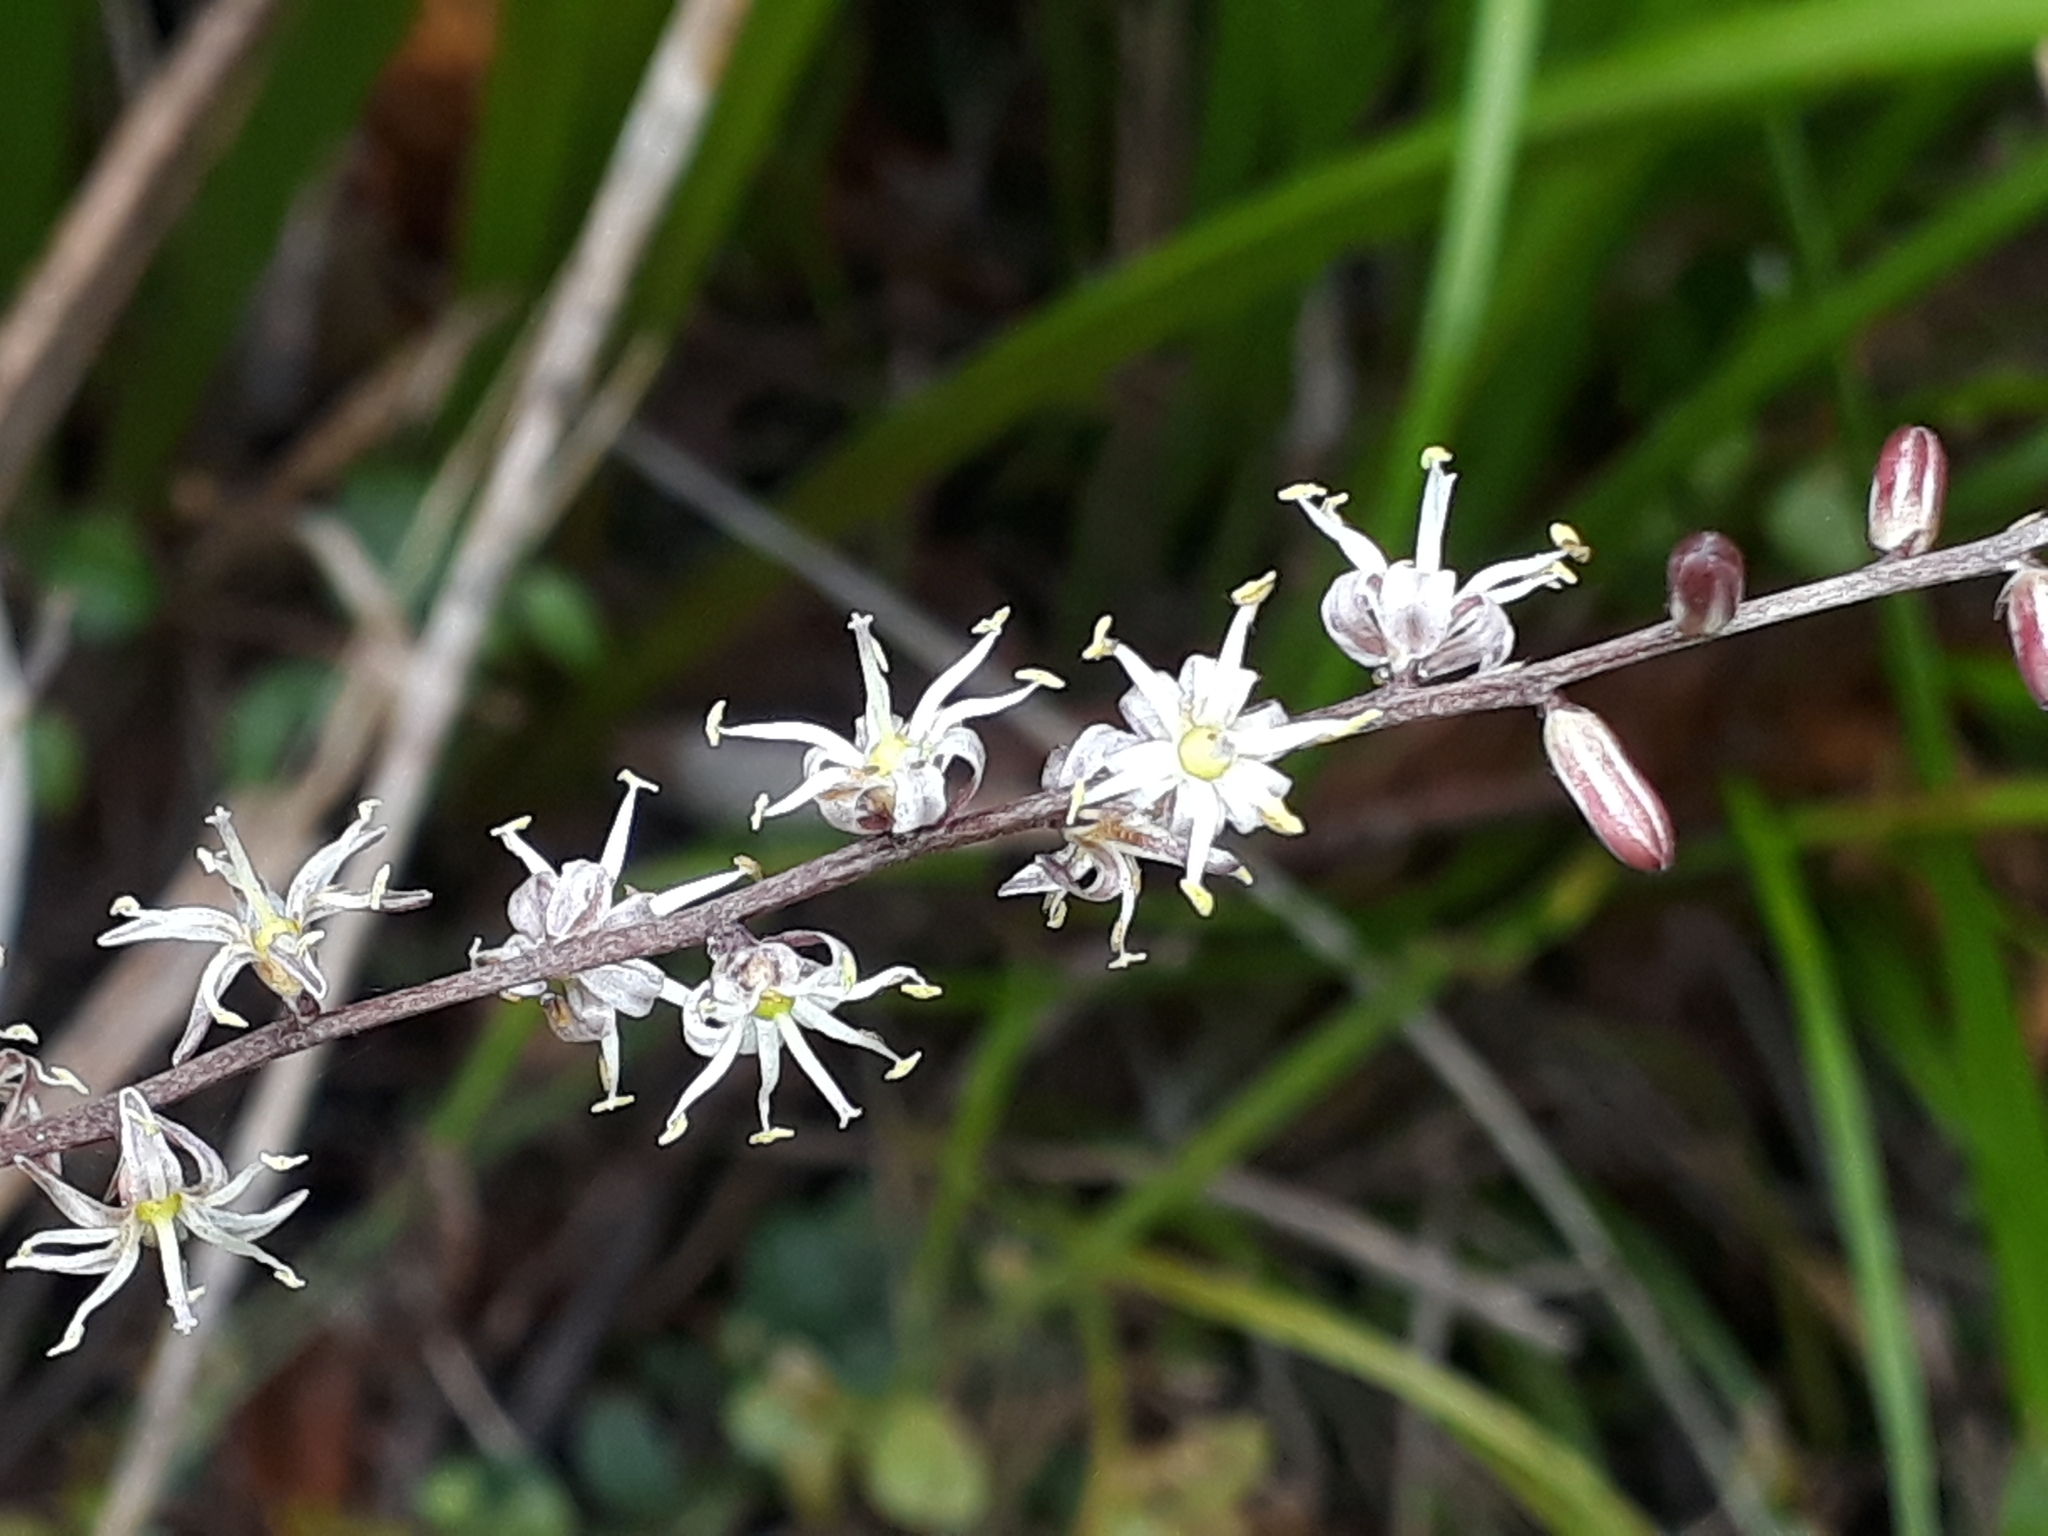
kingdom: Plantae
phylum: Tracheophyta
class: Liliopsida
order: Asparagales
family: Asparagaceae
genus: Cordyline
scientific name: Cordyline pumilio
